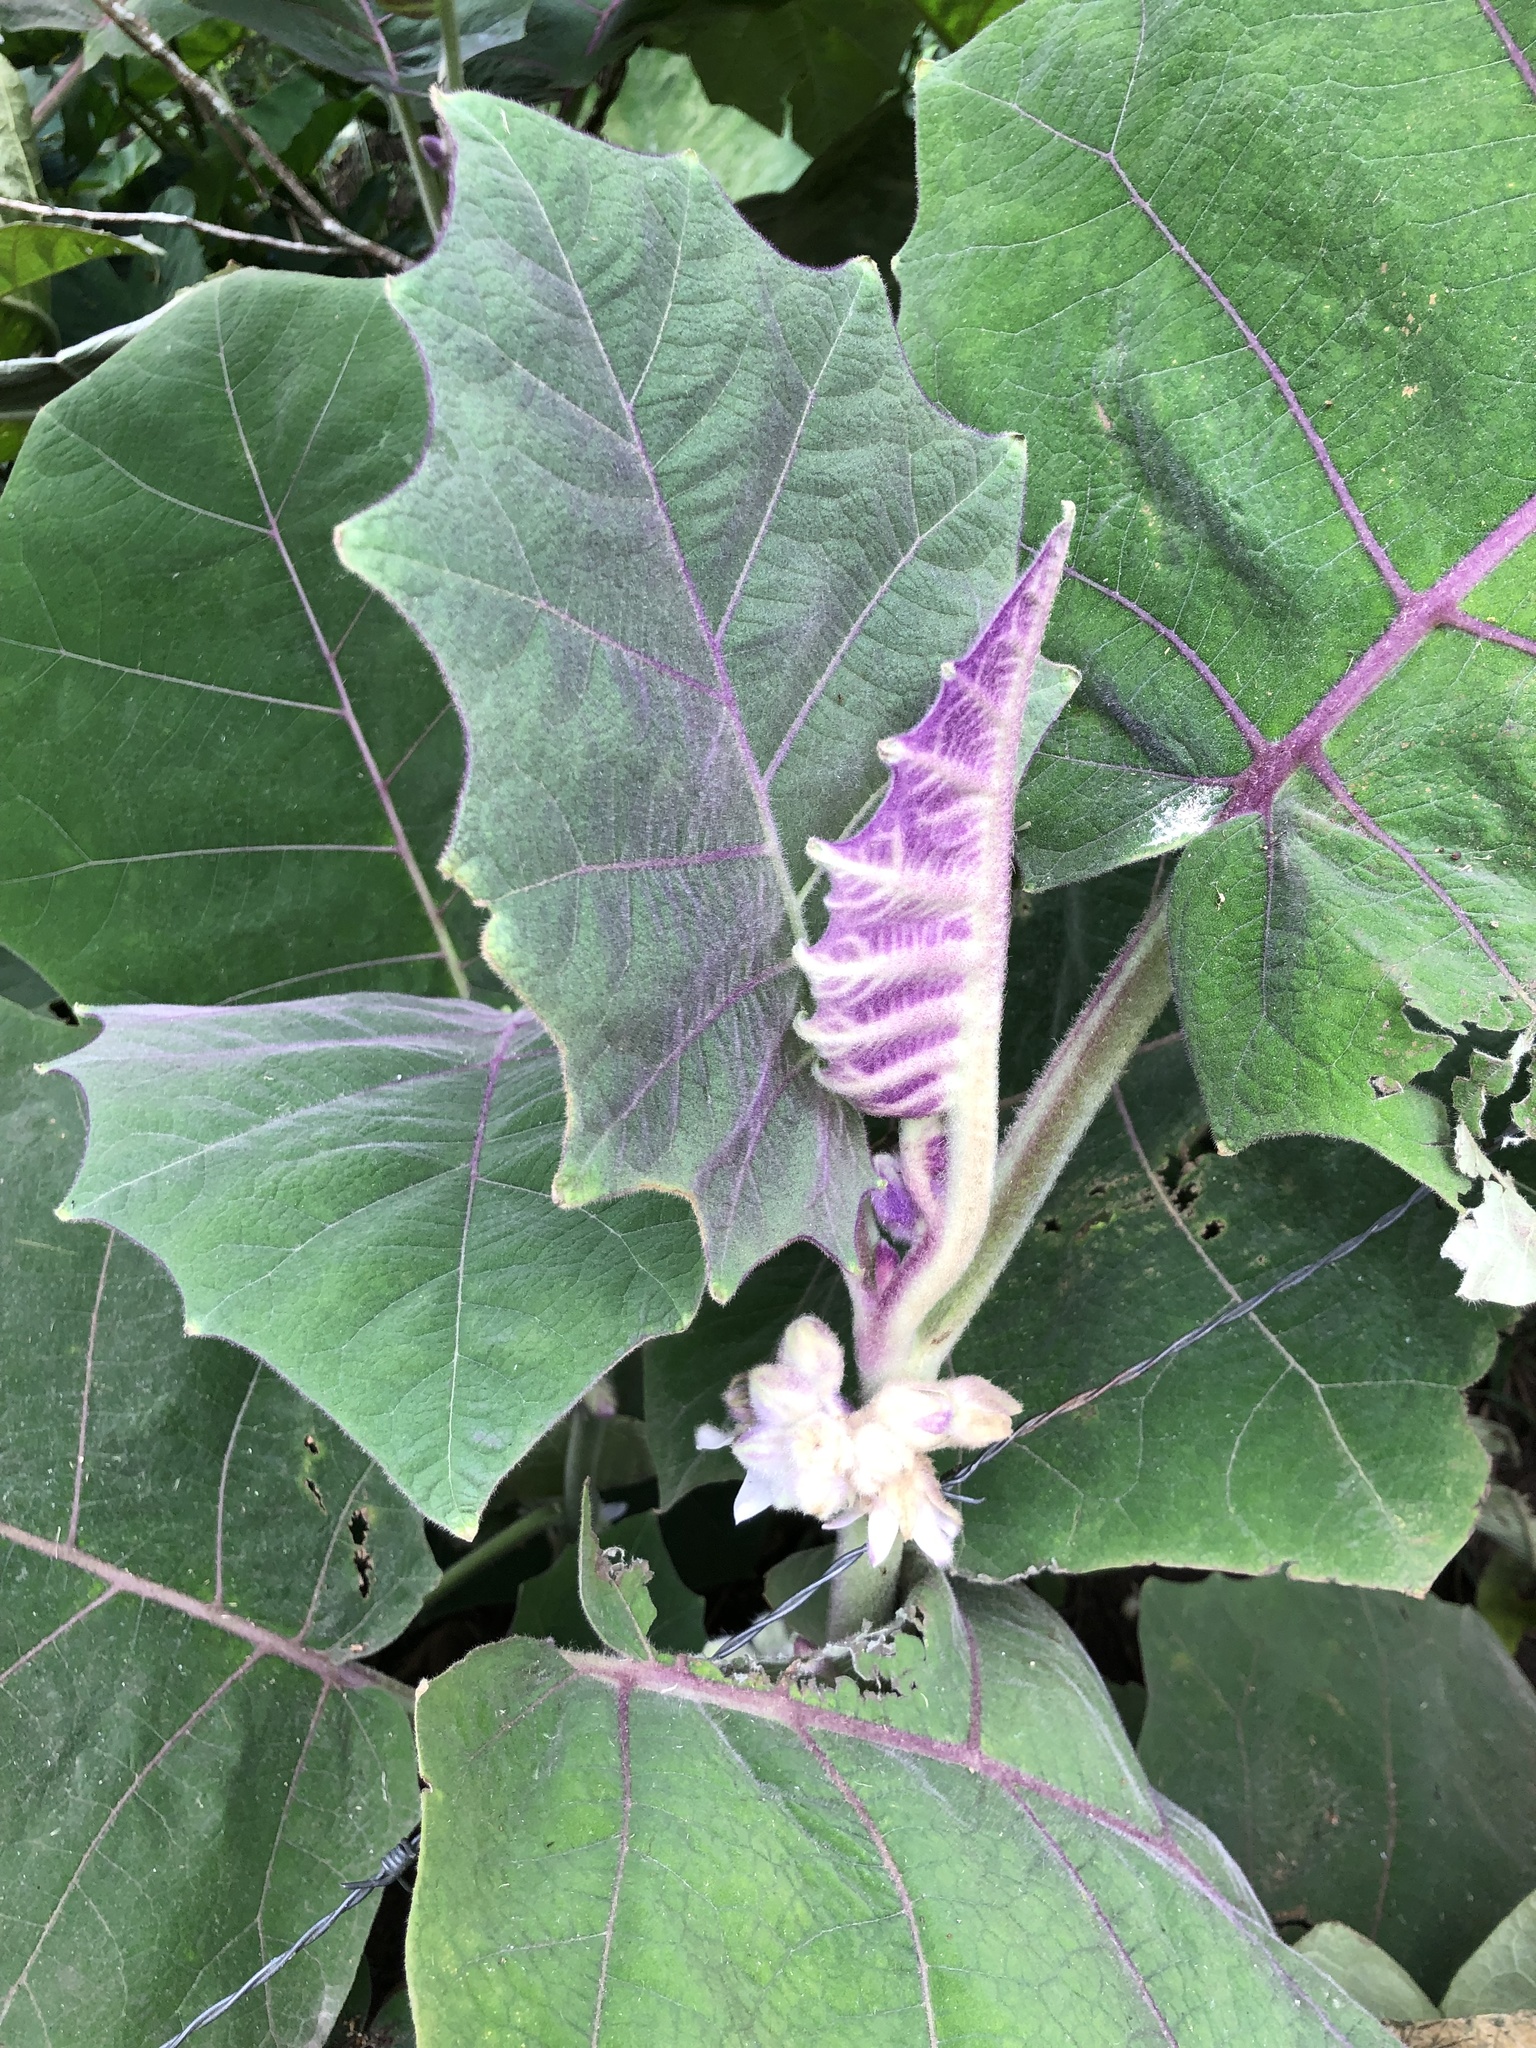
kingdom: Plantae
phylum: Tracheophyta
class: Magnoliopsida
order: Solanales
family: Solanaceae
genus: Solanum
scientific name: Solanum quitoense
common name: Quito-orange
